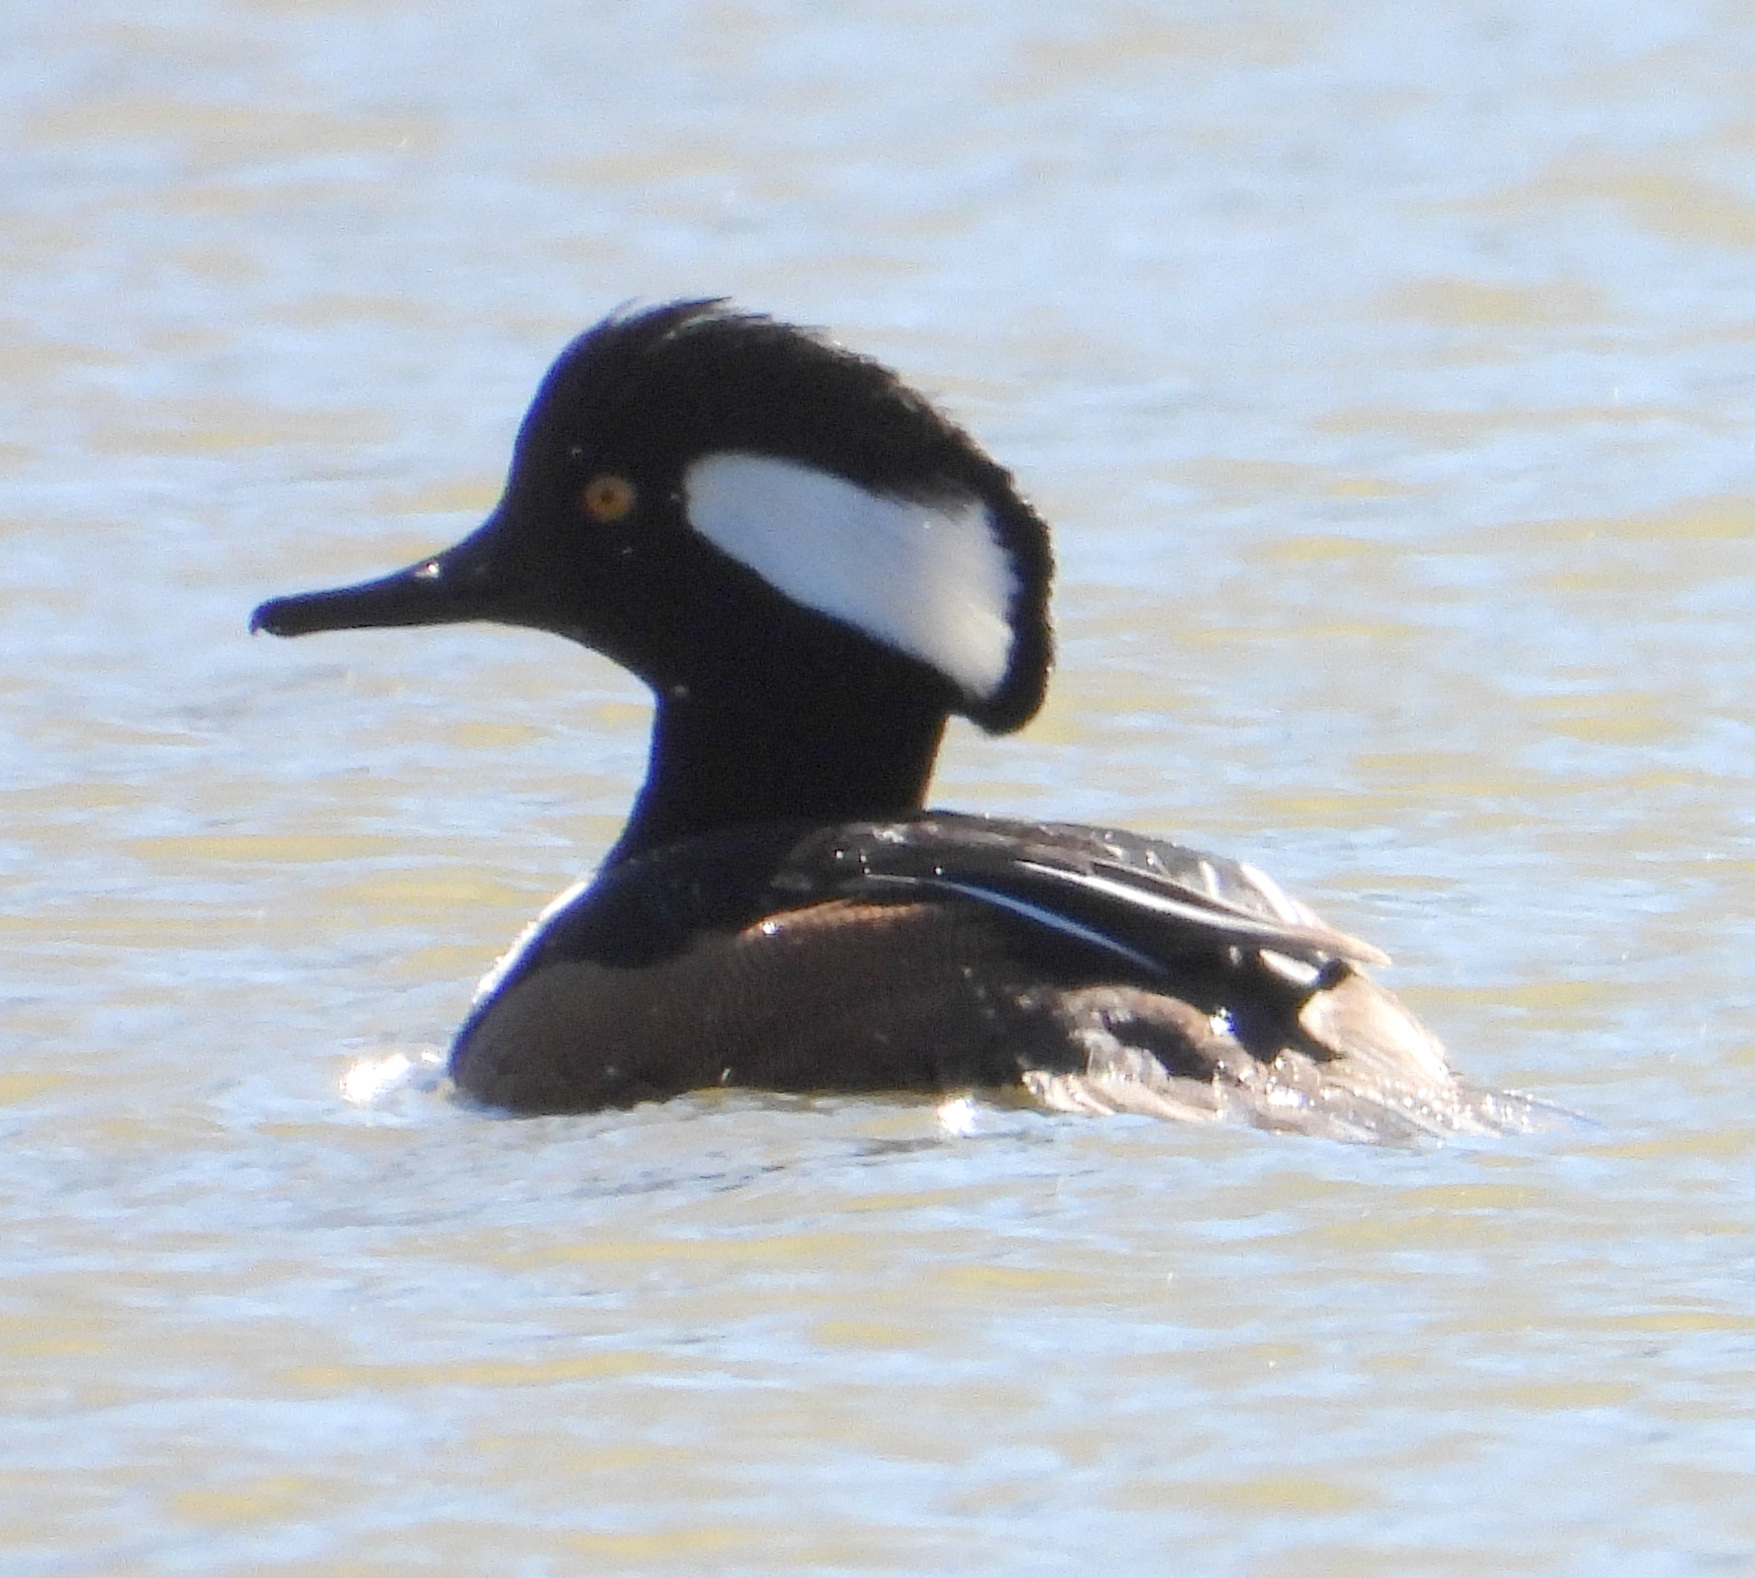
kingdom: Animalia
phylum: Chordata
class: Aves
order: Anseriformes
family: Anatidae
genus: Lophodytes
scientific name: Lophodytes cucullatus
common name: Hooded merganser
